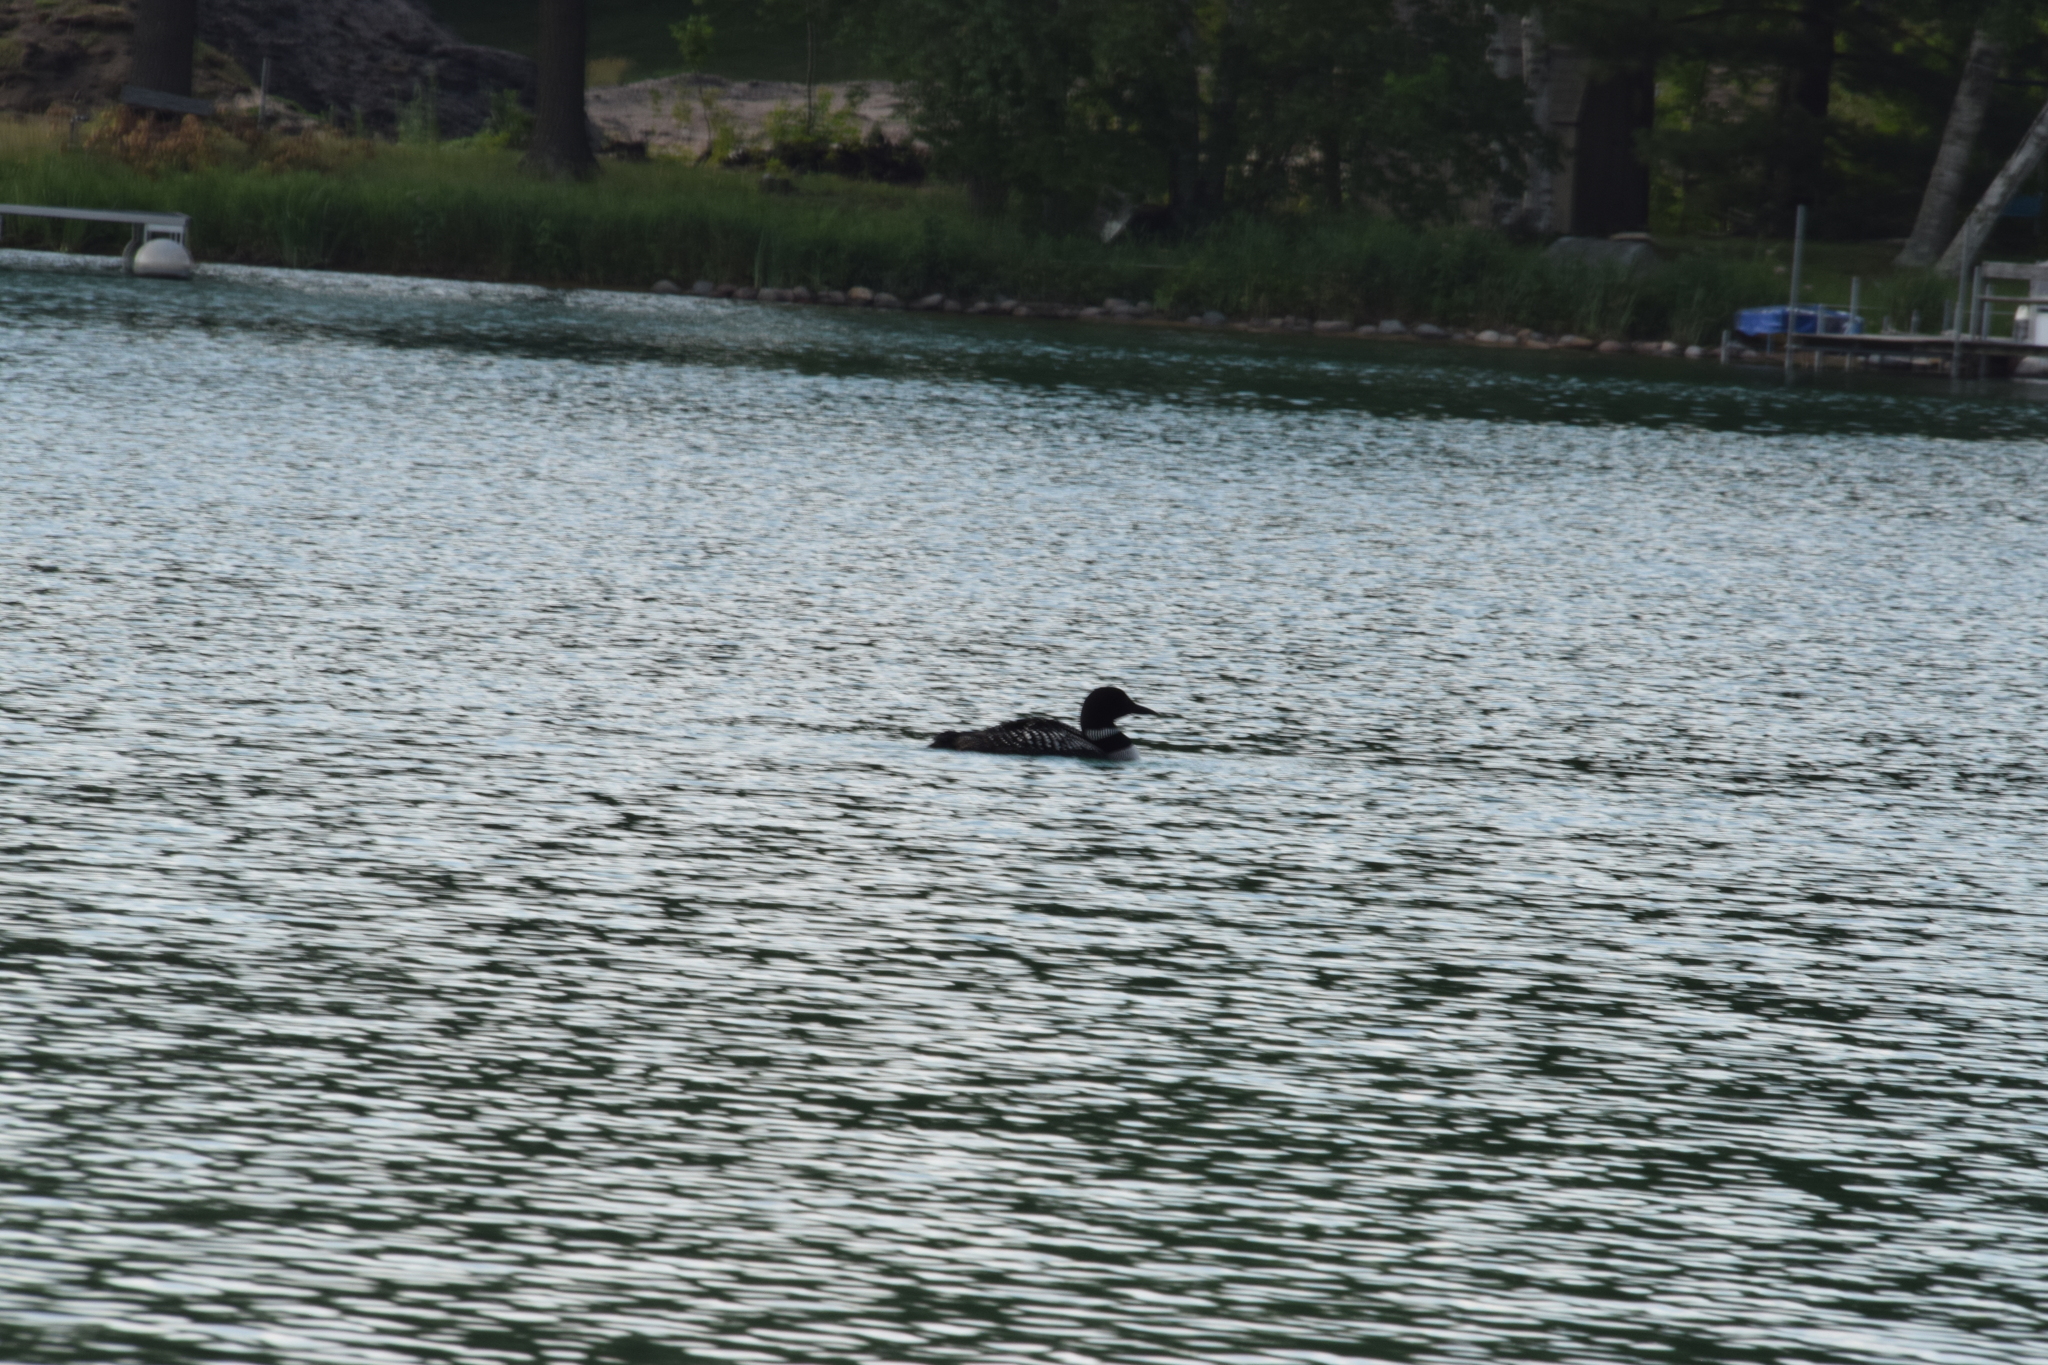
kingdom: Animalia
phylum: Chordata
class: Aves
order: Gaviiformes
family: Gaviidae
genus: Gavia
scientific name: Gavia immer
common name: Common loon
